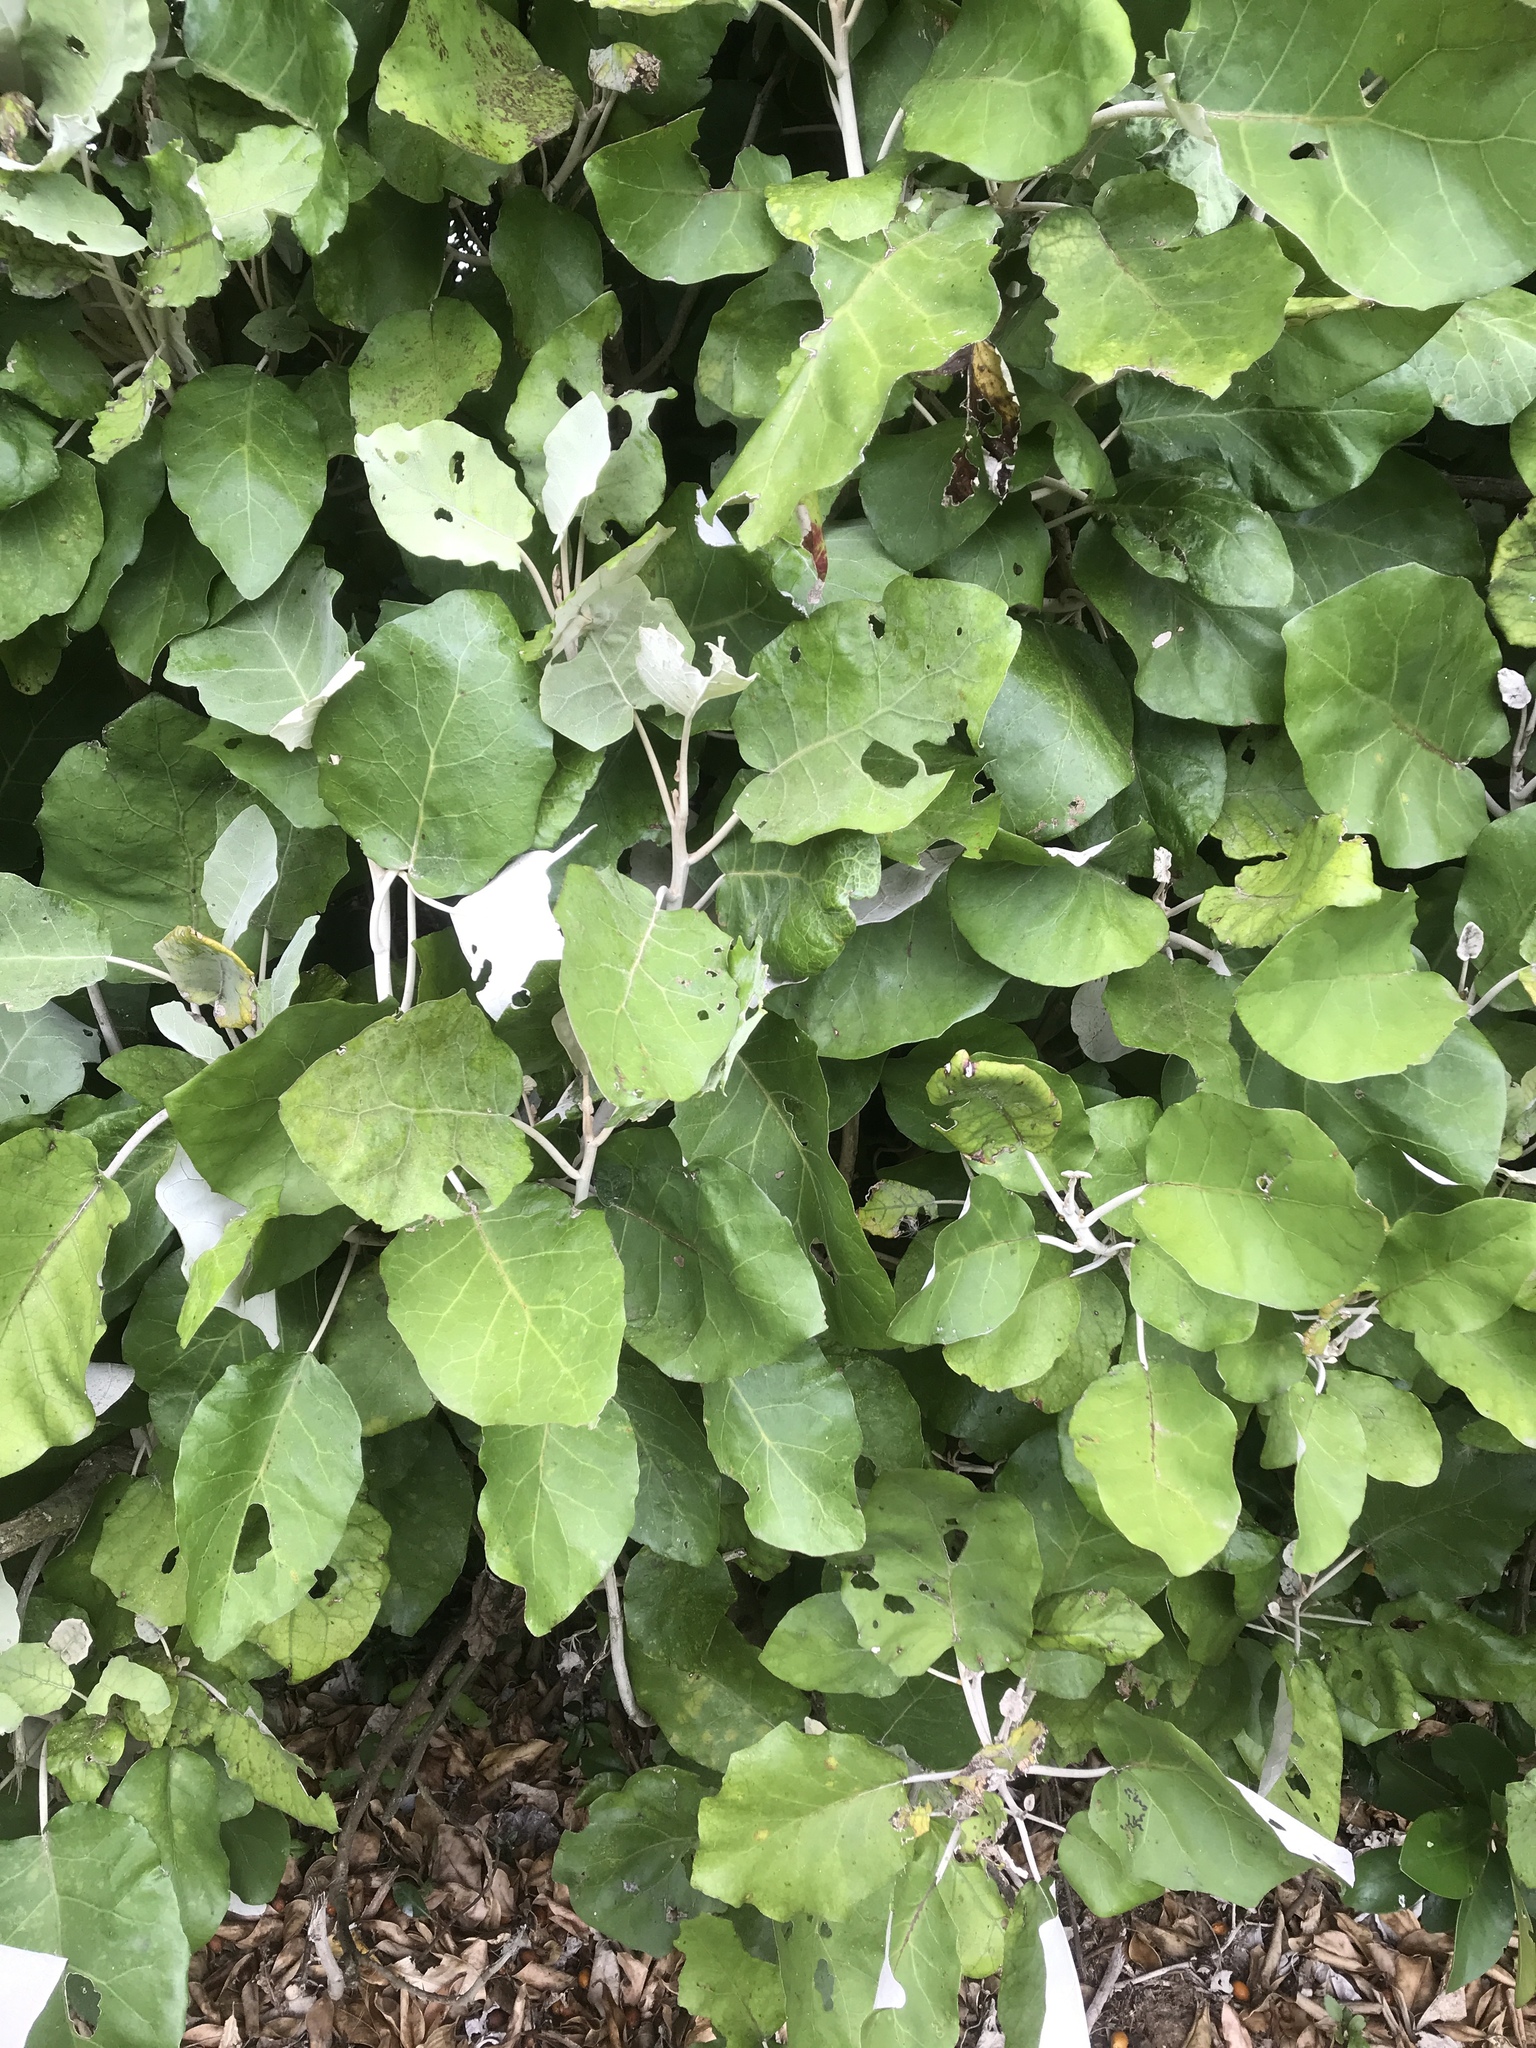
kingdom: Plantae
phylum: Tracheophyta
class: Magnoliopsida
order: Asterales
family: Asteraceae
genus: Brachyglottis
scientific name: Brachyglottis repanda
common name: Hedge ragwort
